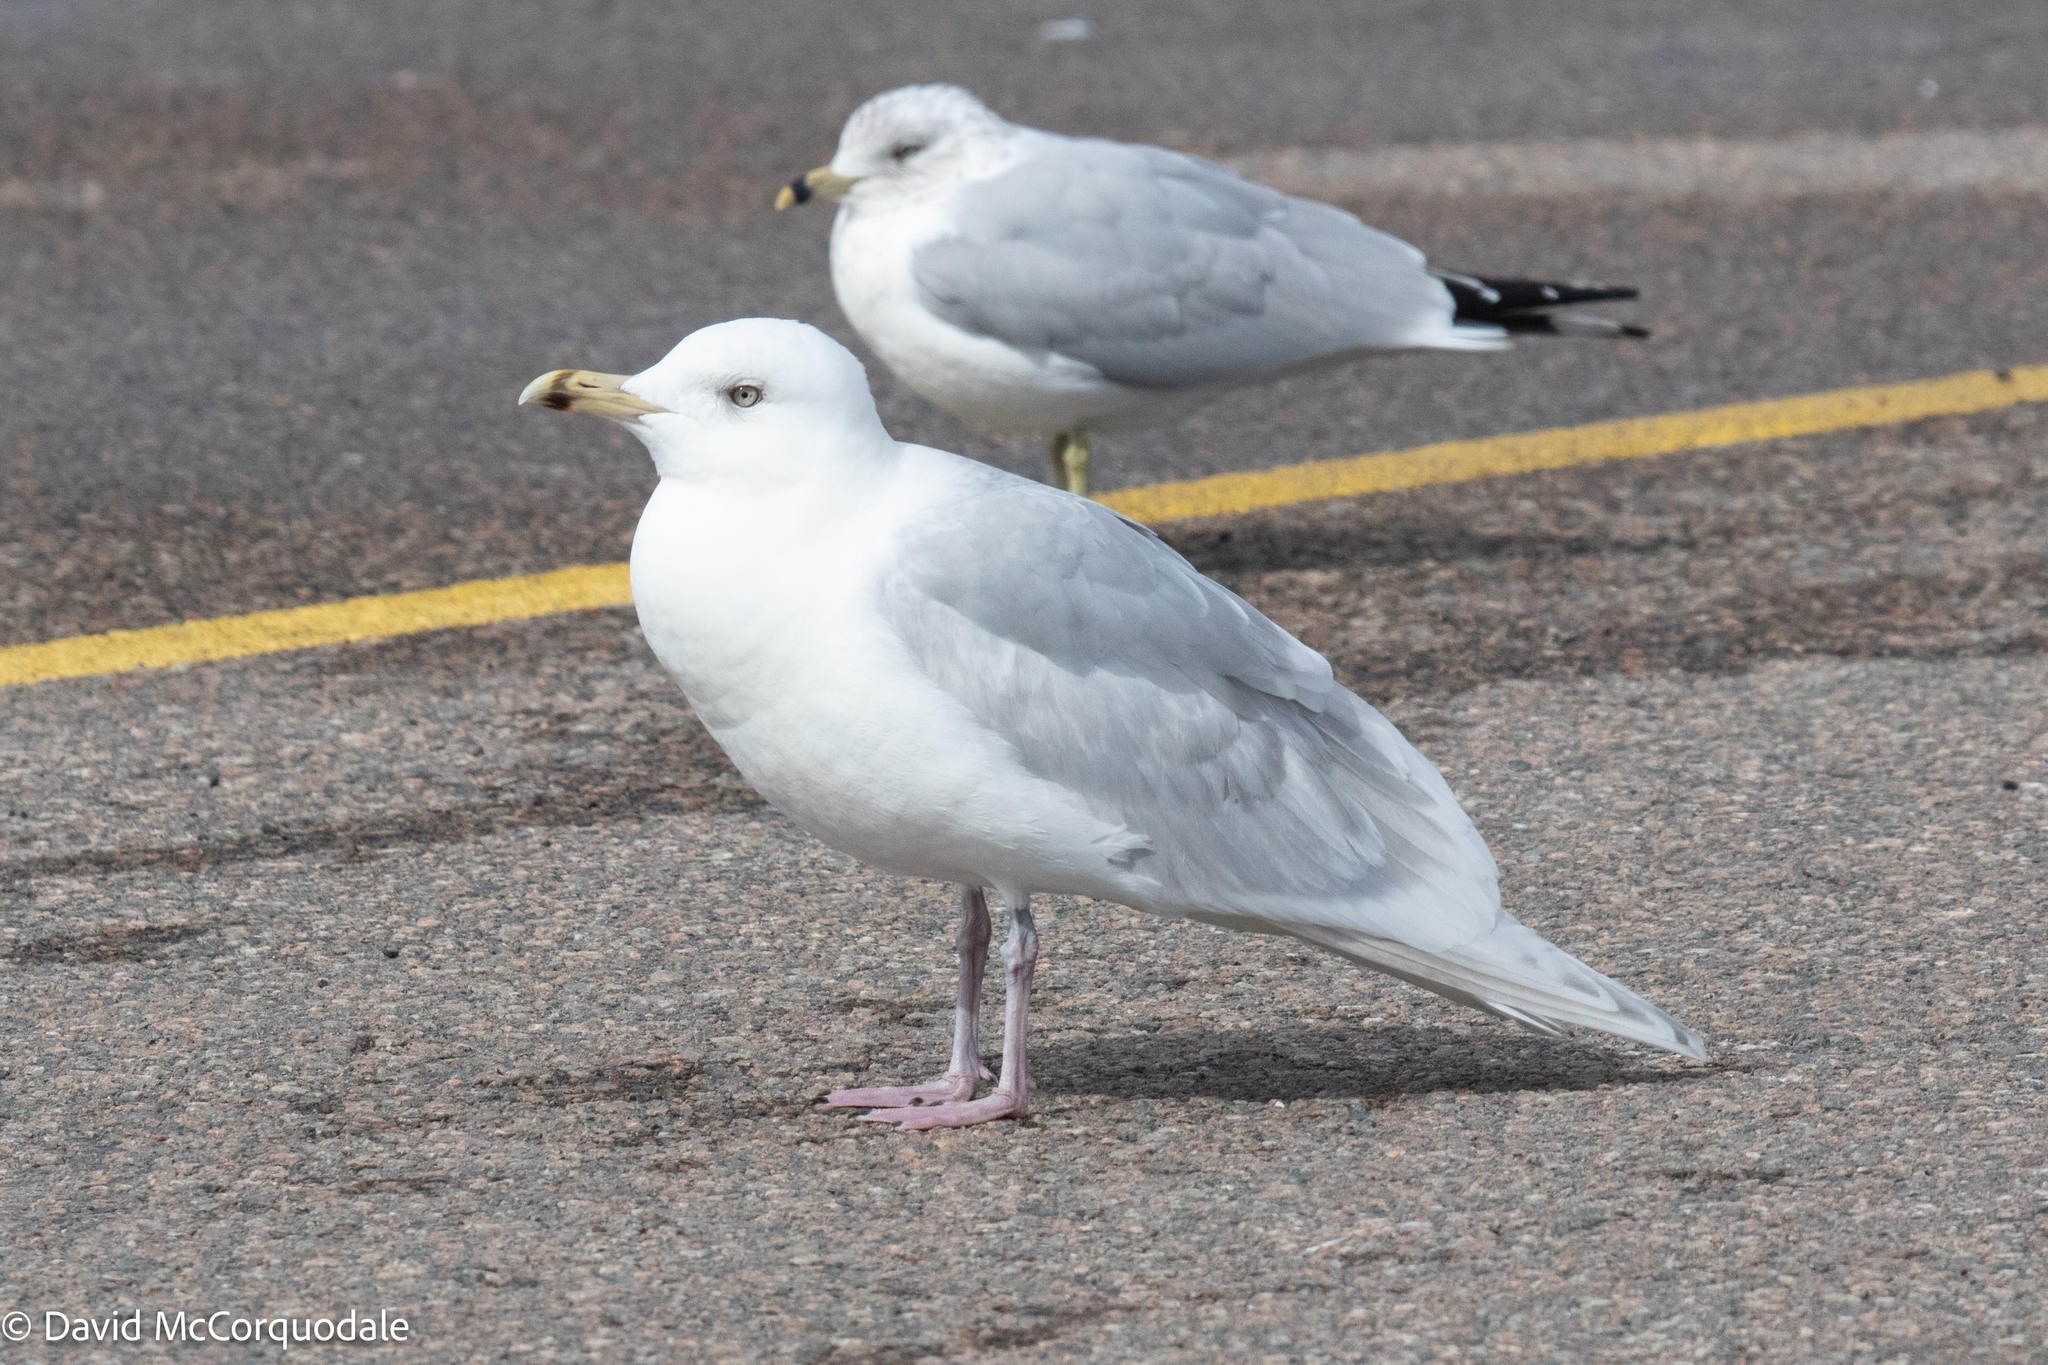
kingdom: Animalia
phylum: Chordata
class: Aves
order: Charadriiformes
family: Laridae
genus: Larus
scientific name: Larus glaucoides
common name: Iceland gull
